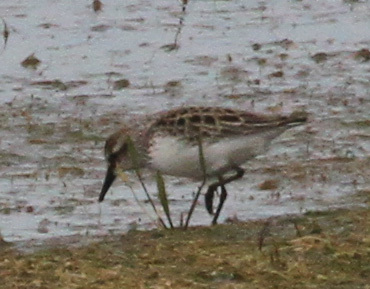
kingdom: Animalia
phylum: Chordata
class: Aves
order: Charadriiformes
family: Scolopacidae
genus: Calidris
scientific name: Calidris pusilla
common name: Semipalmated sandpiper
